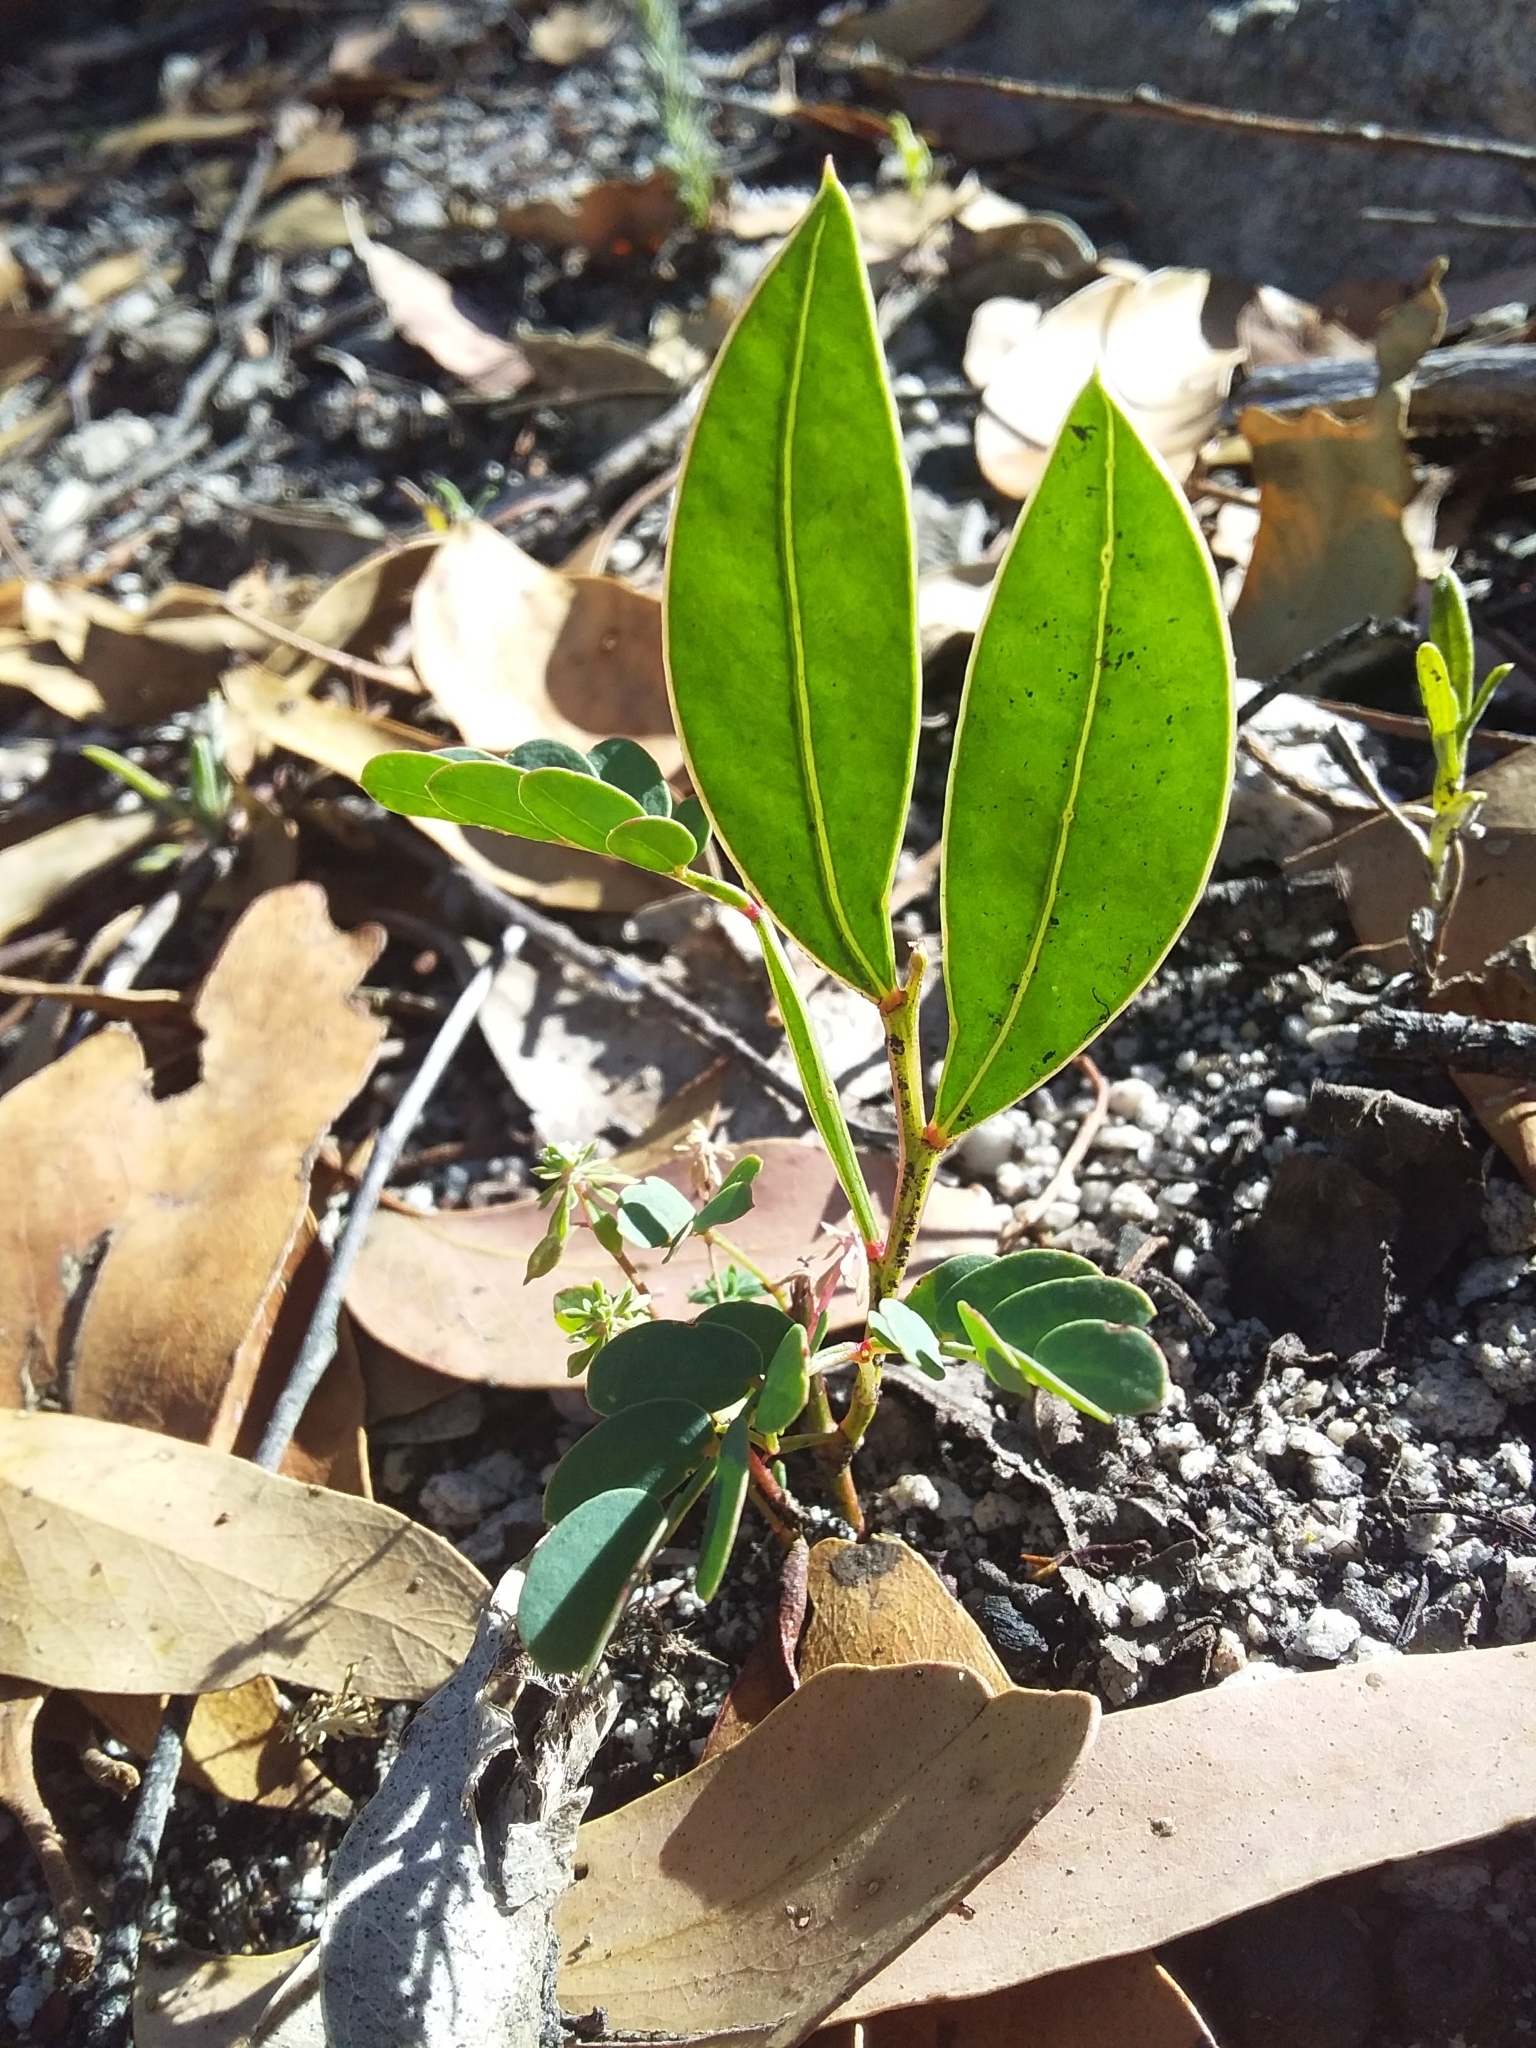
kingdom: Plantae
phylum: Tracheophyta
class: Magnoliopsida
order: Fabales
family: Fabaceae
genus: Acacia
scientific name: Acacia myrtifolia
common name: Myrtle wattle
